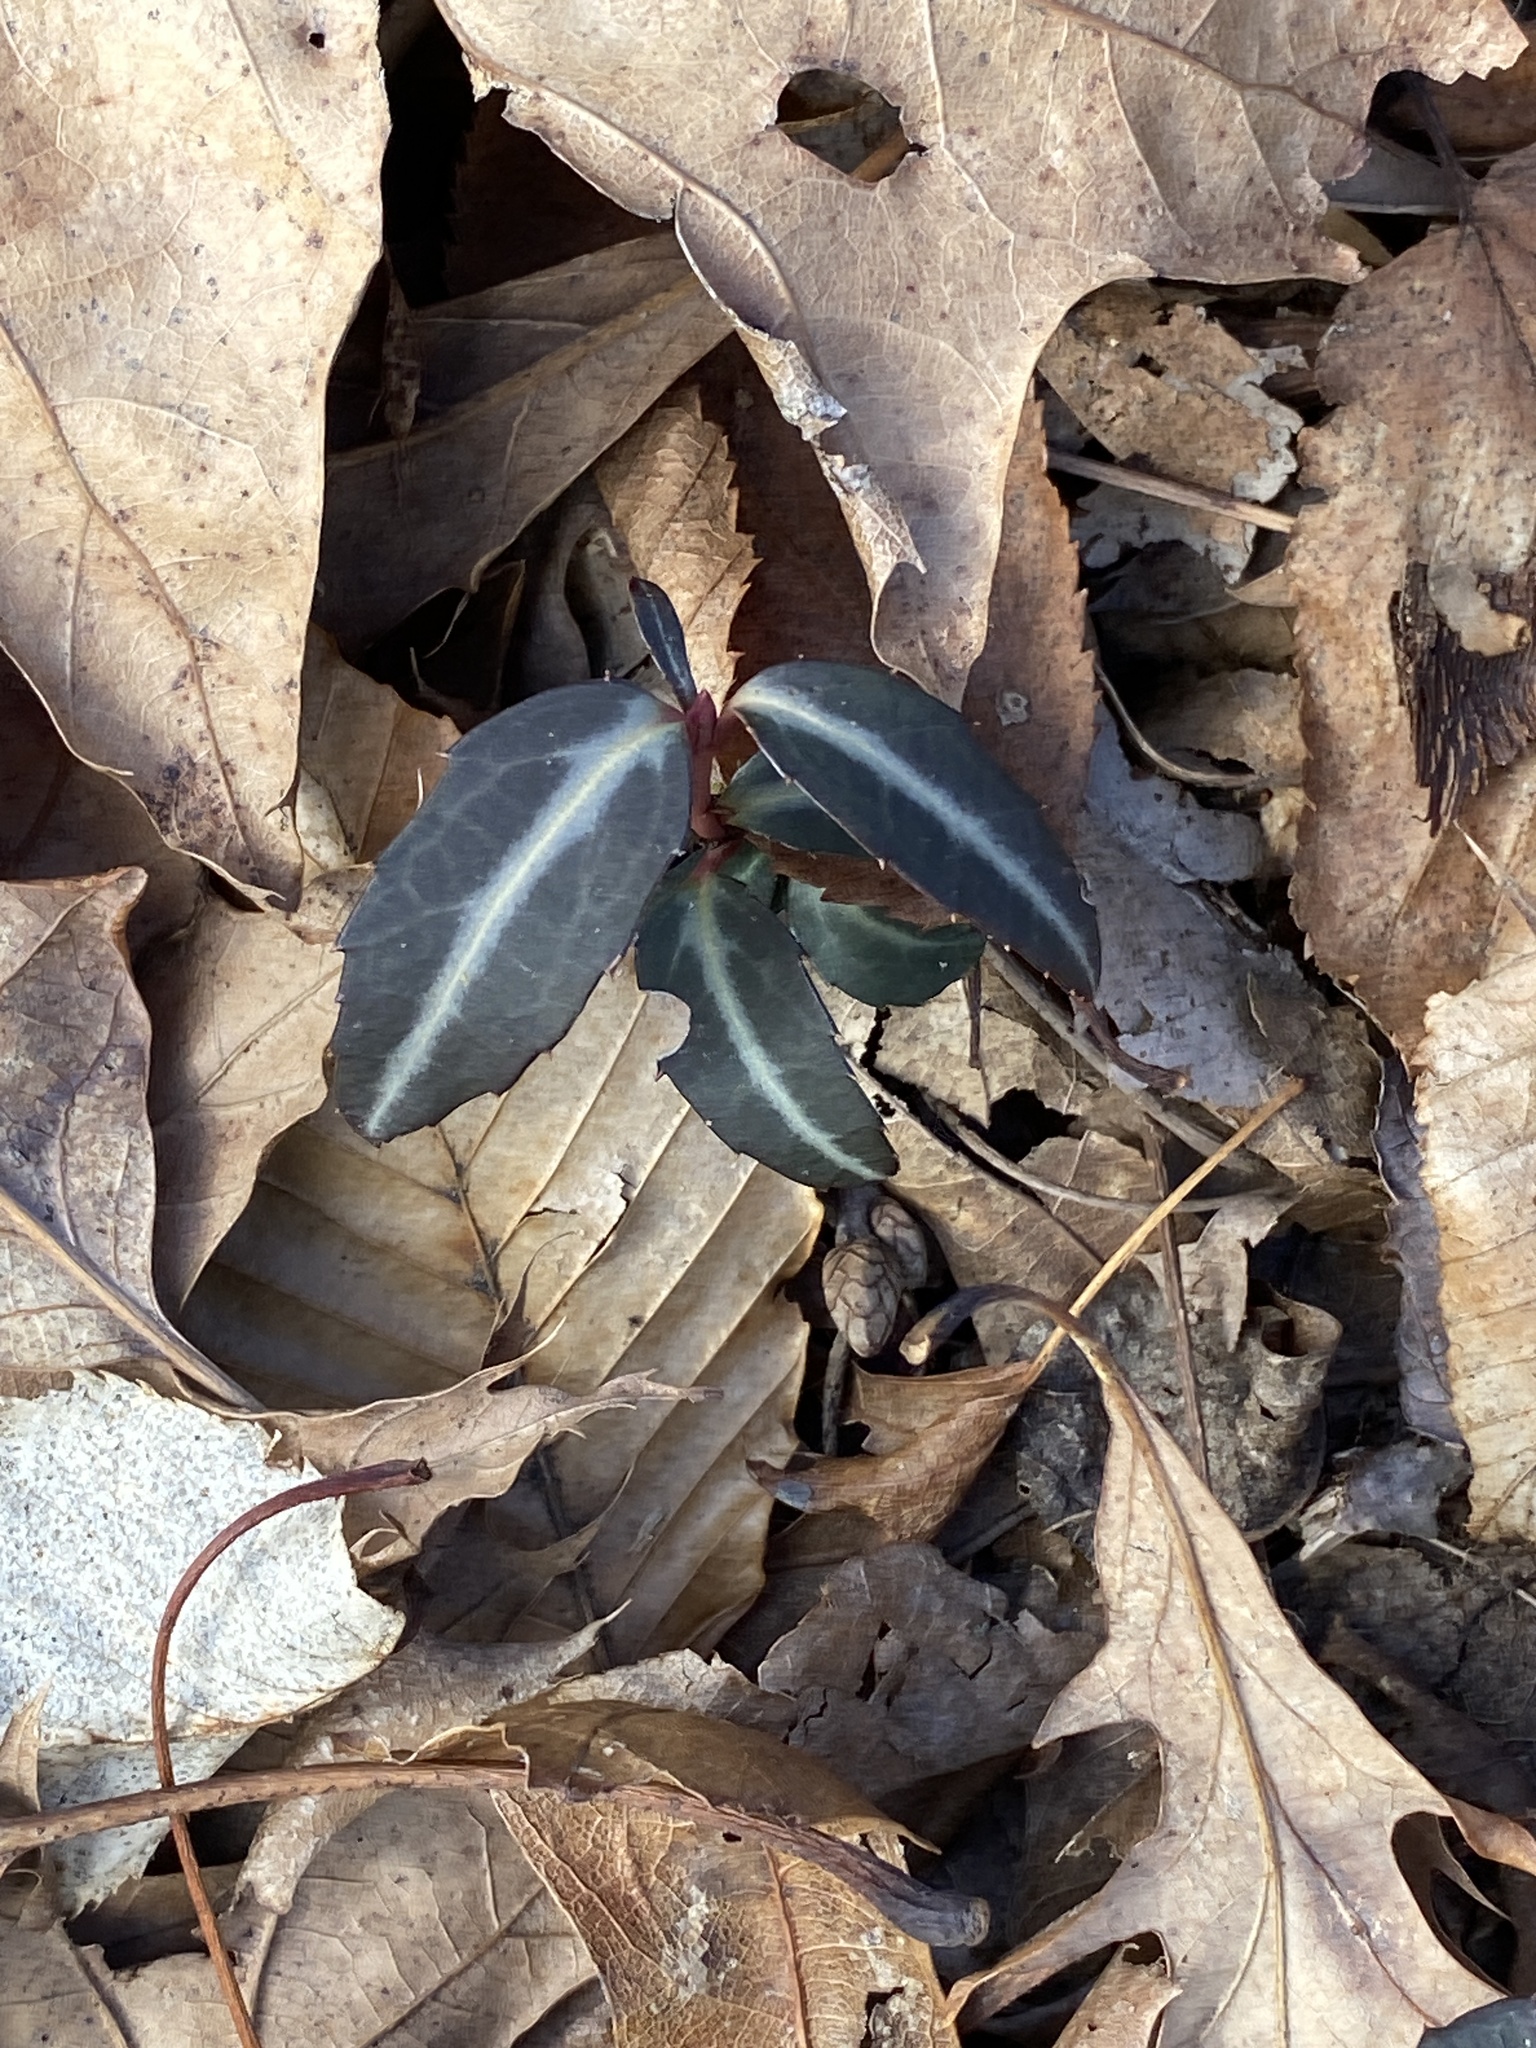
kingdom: Plantae
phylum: Tracheophyta
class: Magnoliopsida
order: Ericales
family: Ericaceae
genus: Chimaphila
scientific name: Chimaphila maculata
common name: Spotted pipsissewa
